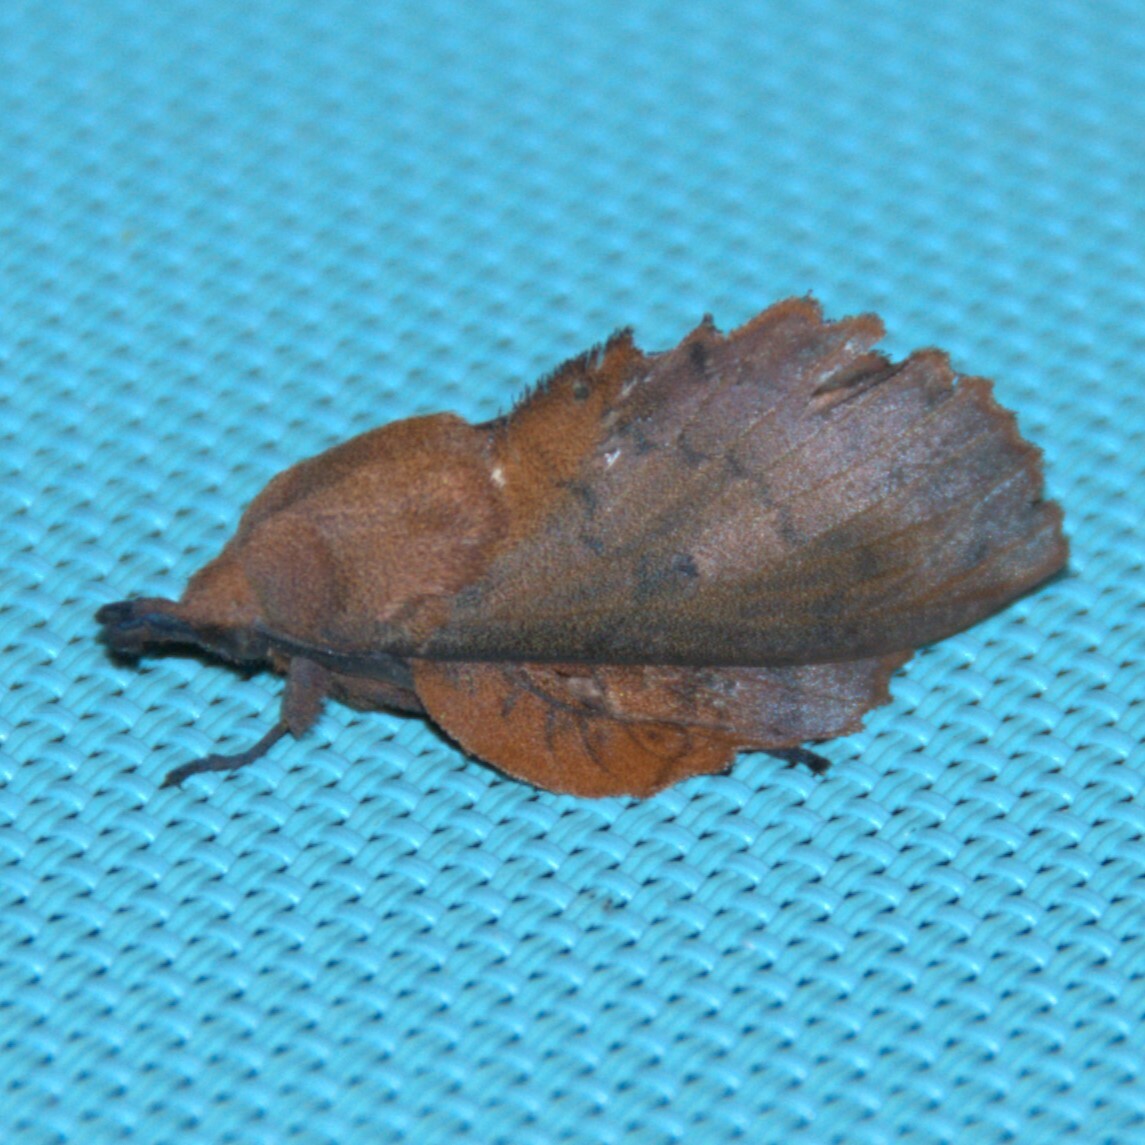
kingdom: Animalia
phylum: Arthropoda
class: Insecta
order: Lepidoptera
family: Lasiocampidae
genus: Gastropacha
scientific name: Gastropacha quercifolia
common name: Lappet
